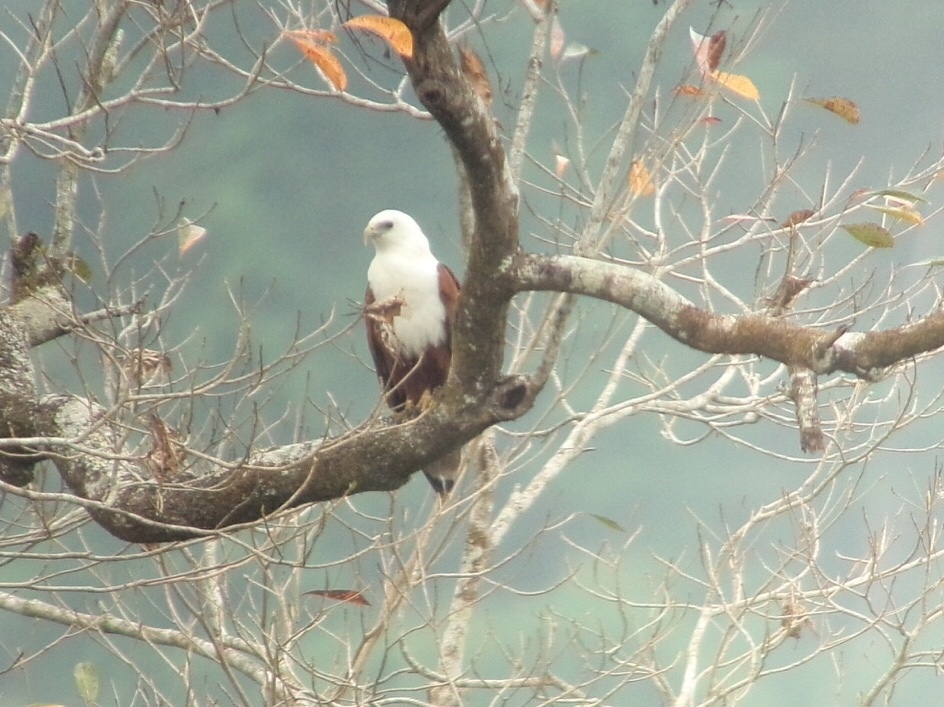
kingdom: Animalia
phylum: Chordata
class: Aves
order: Accipitriformes
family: Accipitridae
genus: Haliastur
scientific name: Haliastur indus
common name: Brahminy kite
